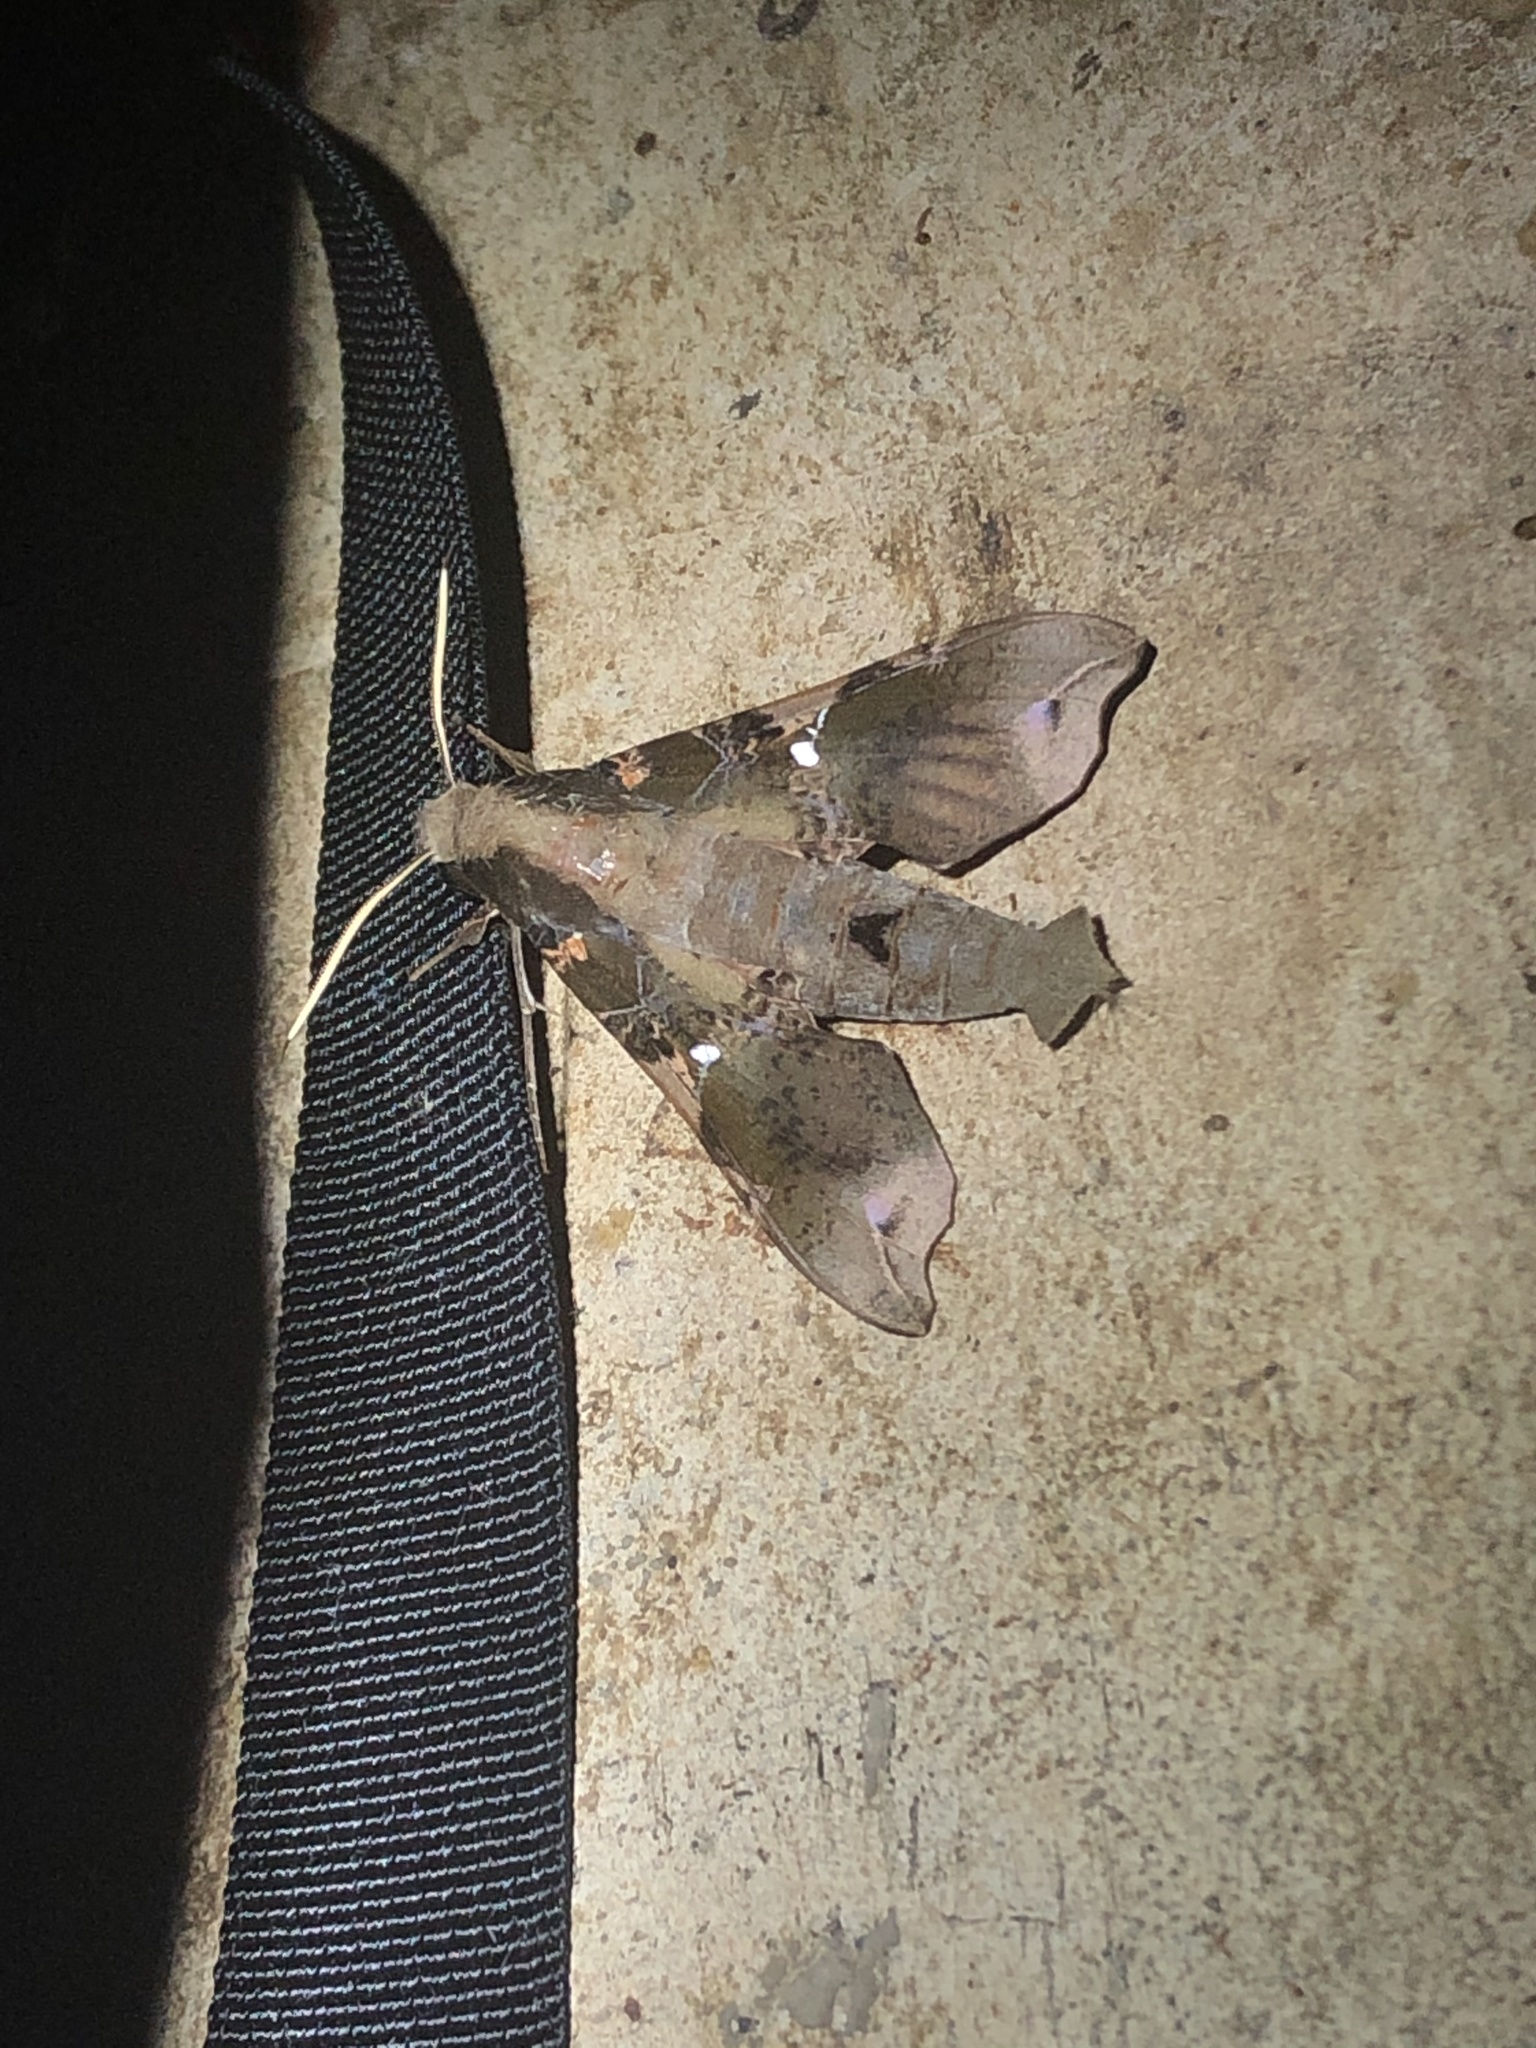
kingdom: Animalia
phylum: Arthropoda
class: Insecta
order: Lepidoptera
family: Sphingidae
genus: Callionima
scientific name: Callionima pan
